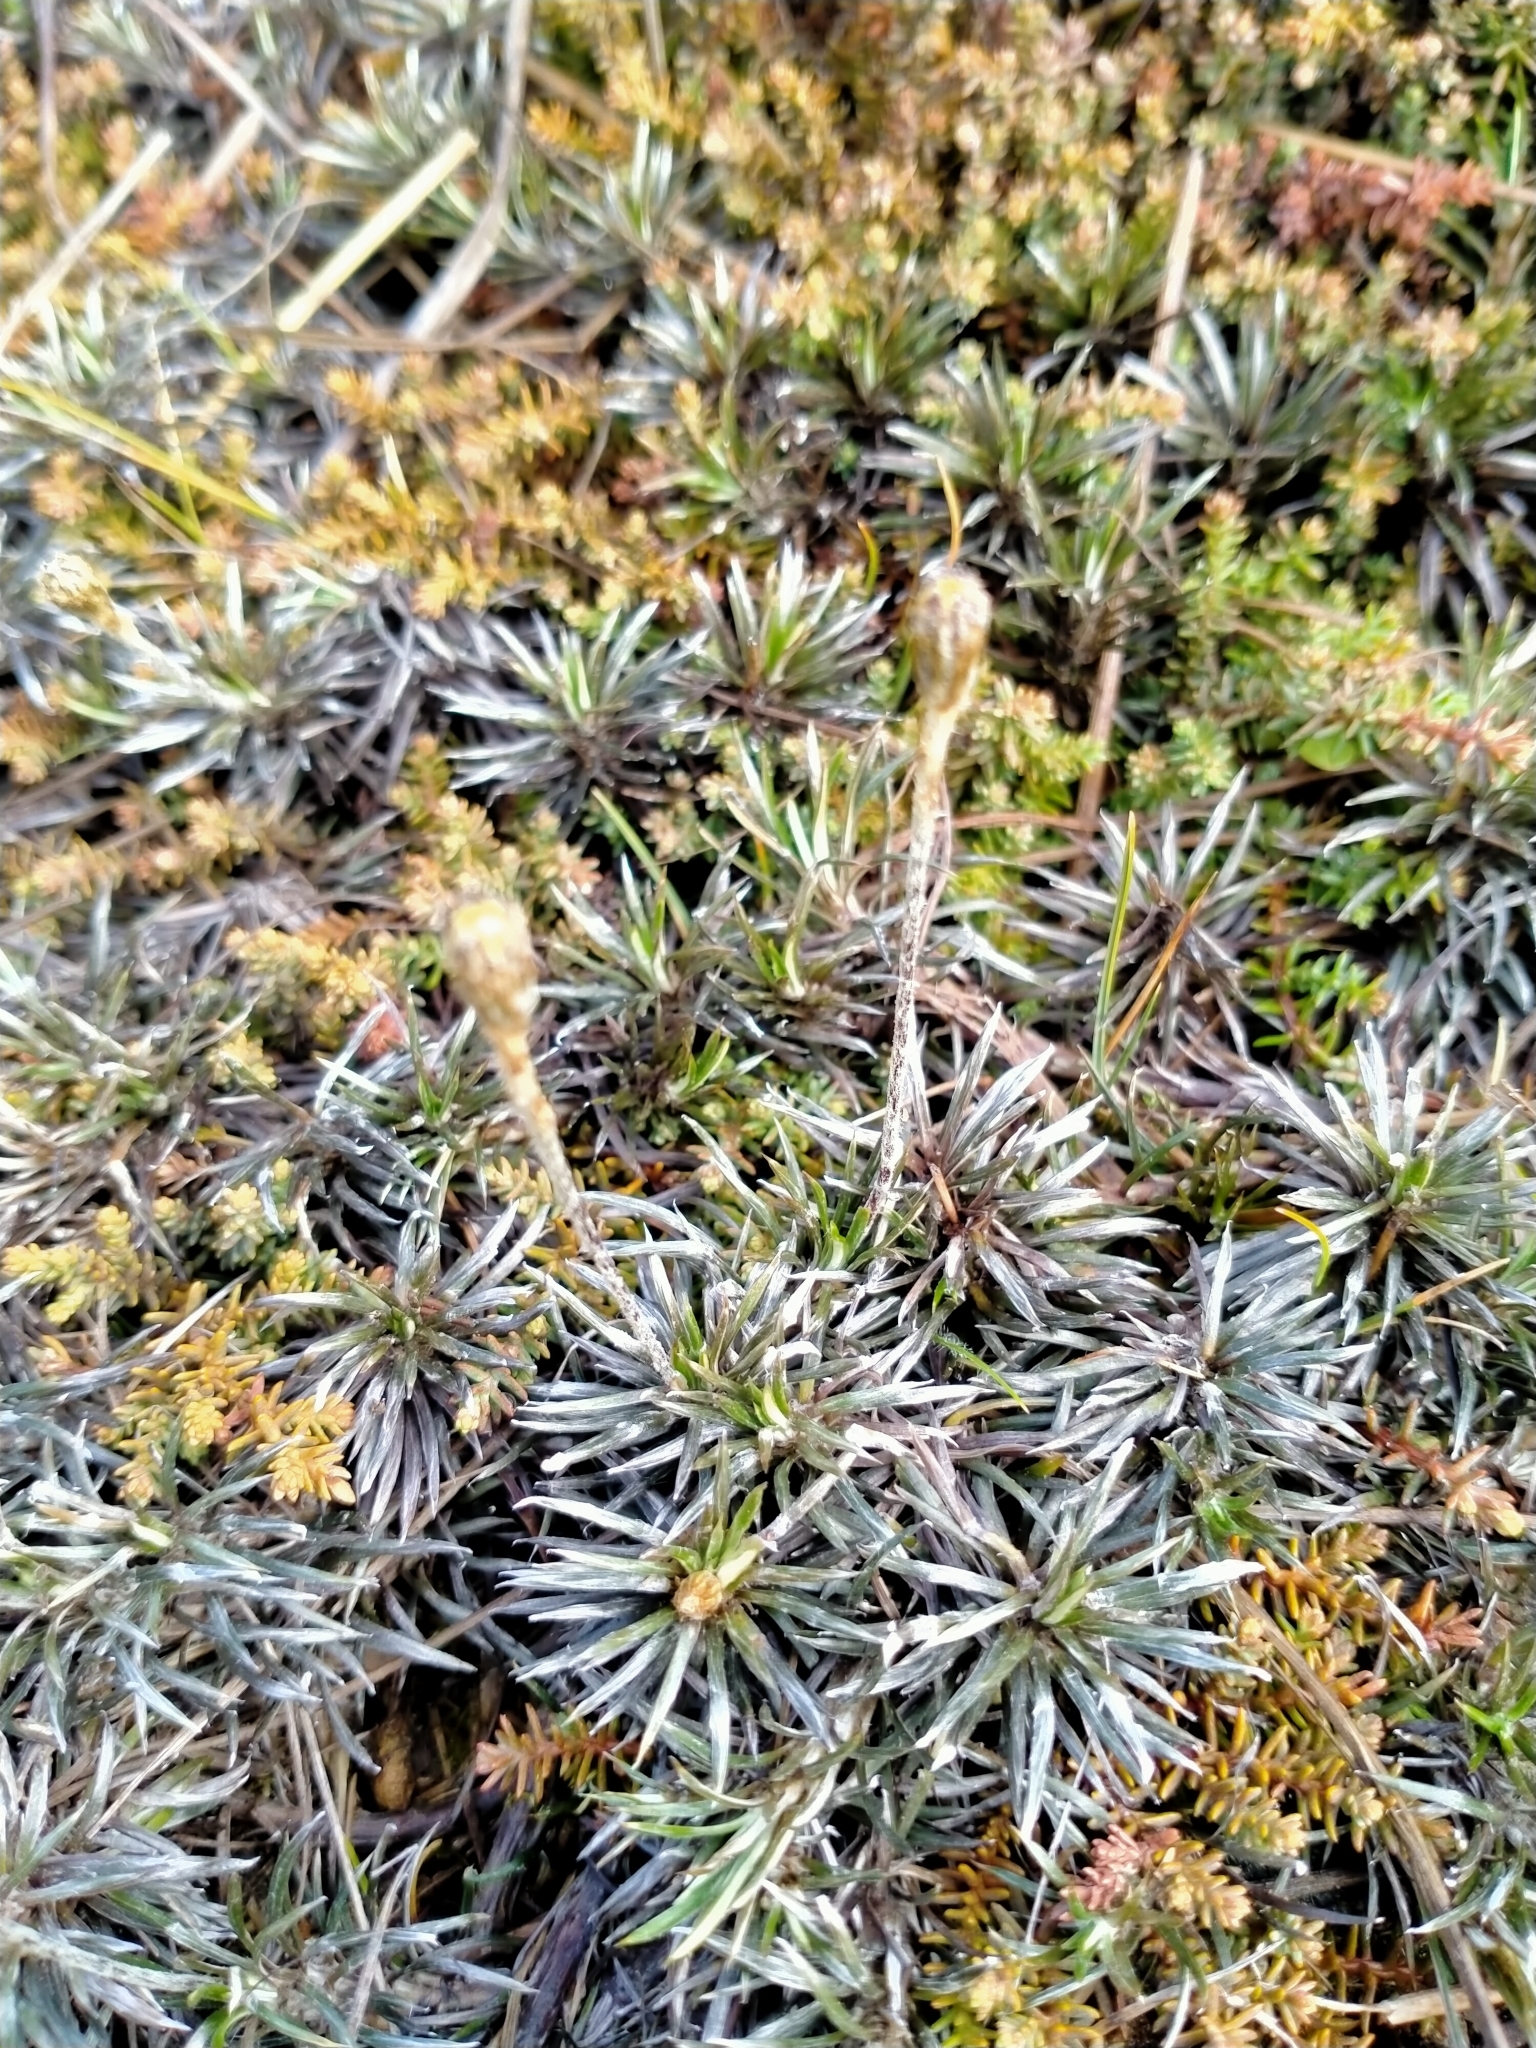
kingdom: Plantae
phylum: Tracheophyta
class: Magnoliopsida
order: Asterales
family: Asteraceae
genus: Celmisia
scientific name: Celmisia laricifolia
